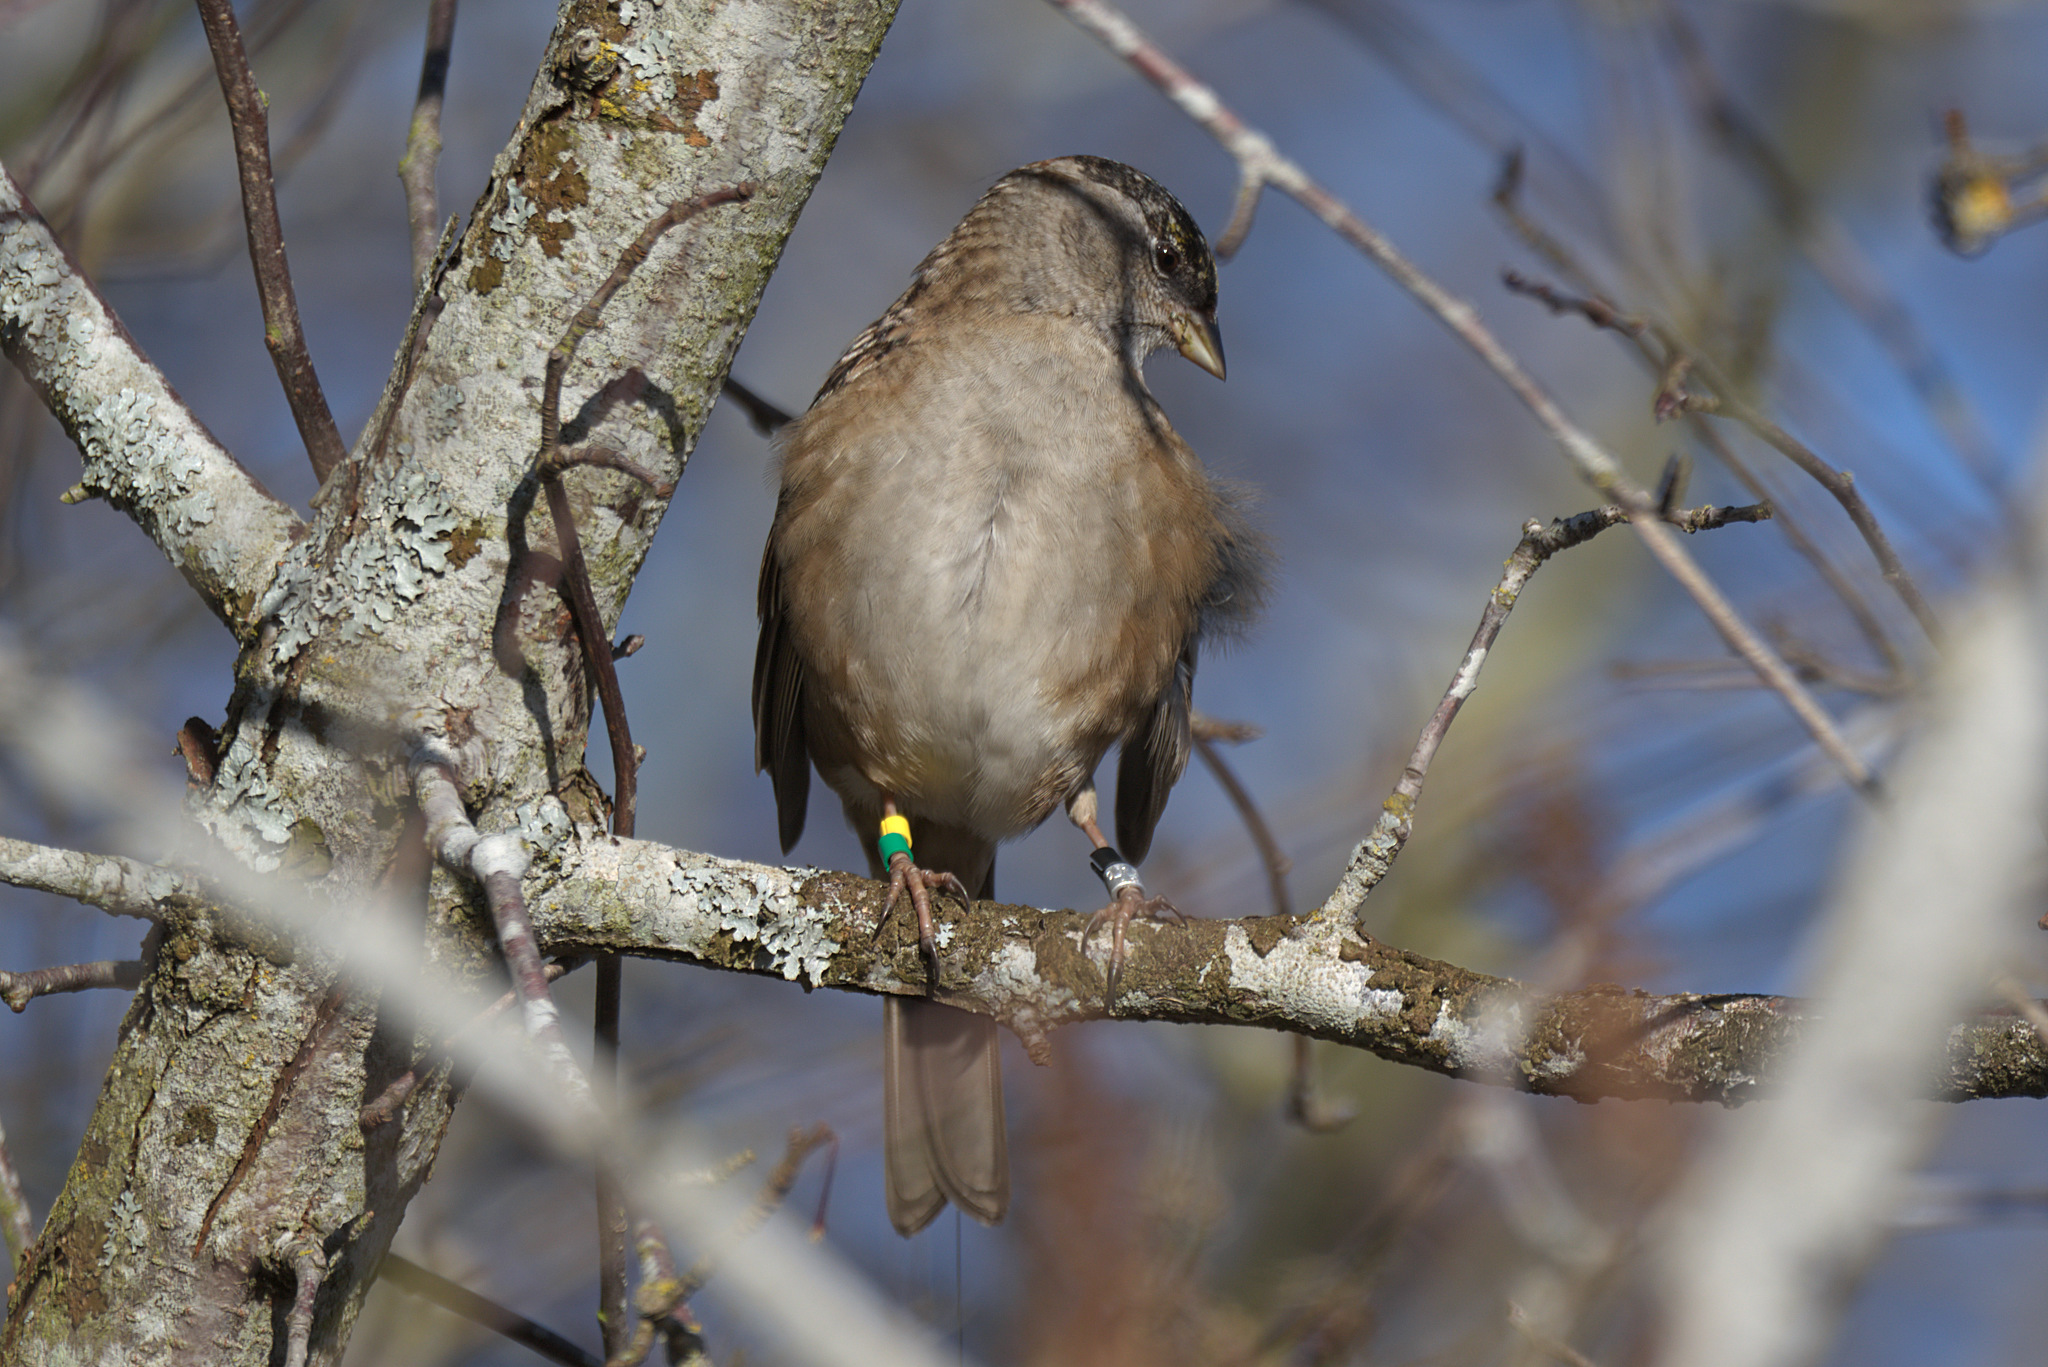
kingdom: Animalia
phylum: Chordata
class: Aves
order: Passeriformes
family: Passerellidae
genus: Zonotrichia
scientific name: Zonotrichia atricapilla
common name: Golden-crowned sparrow
